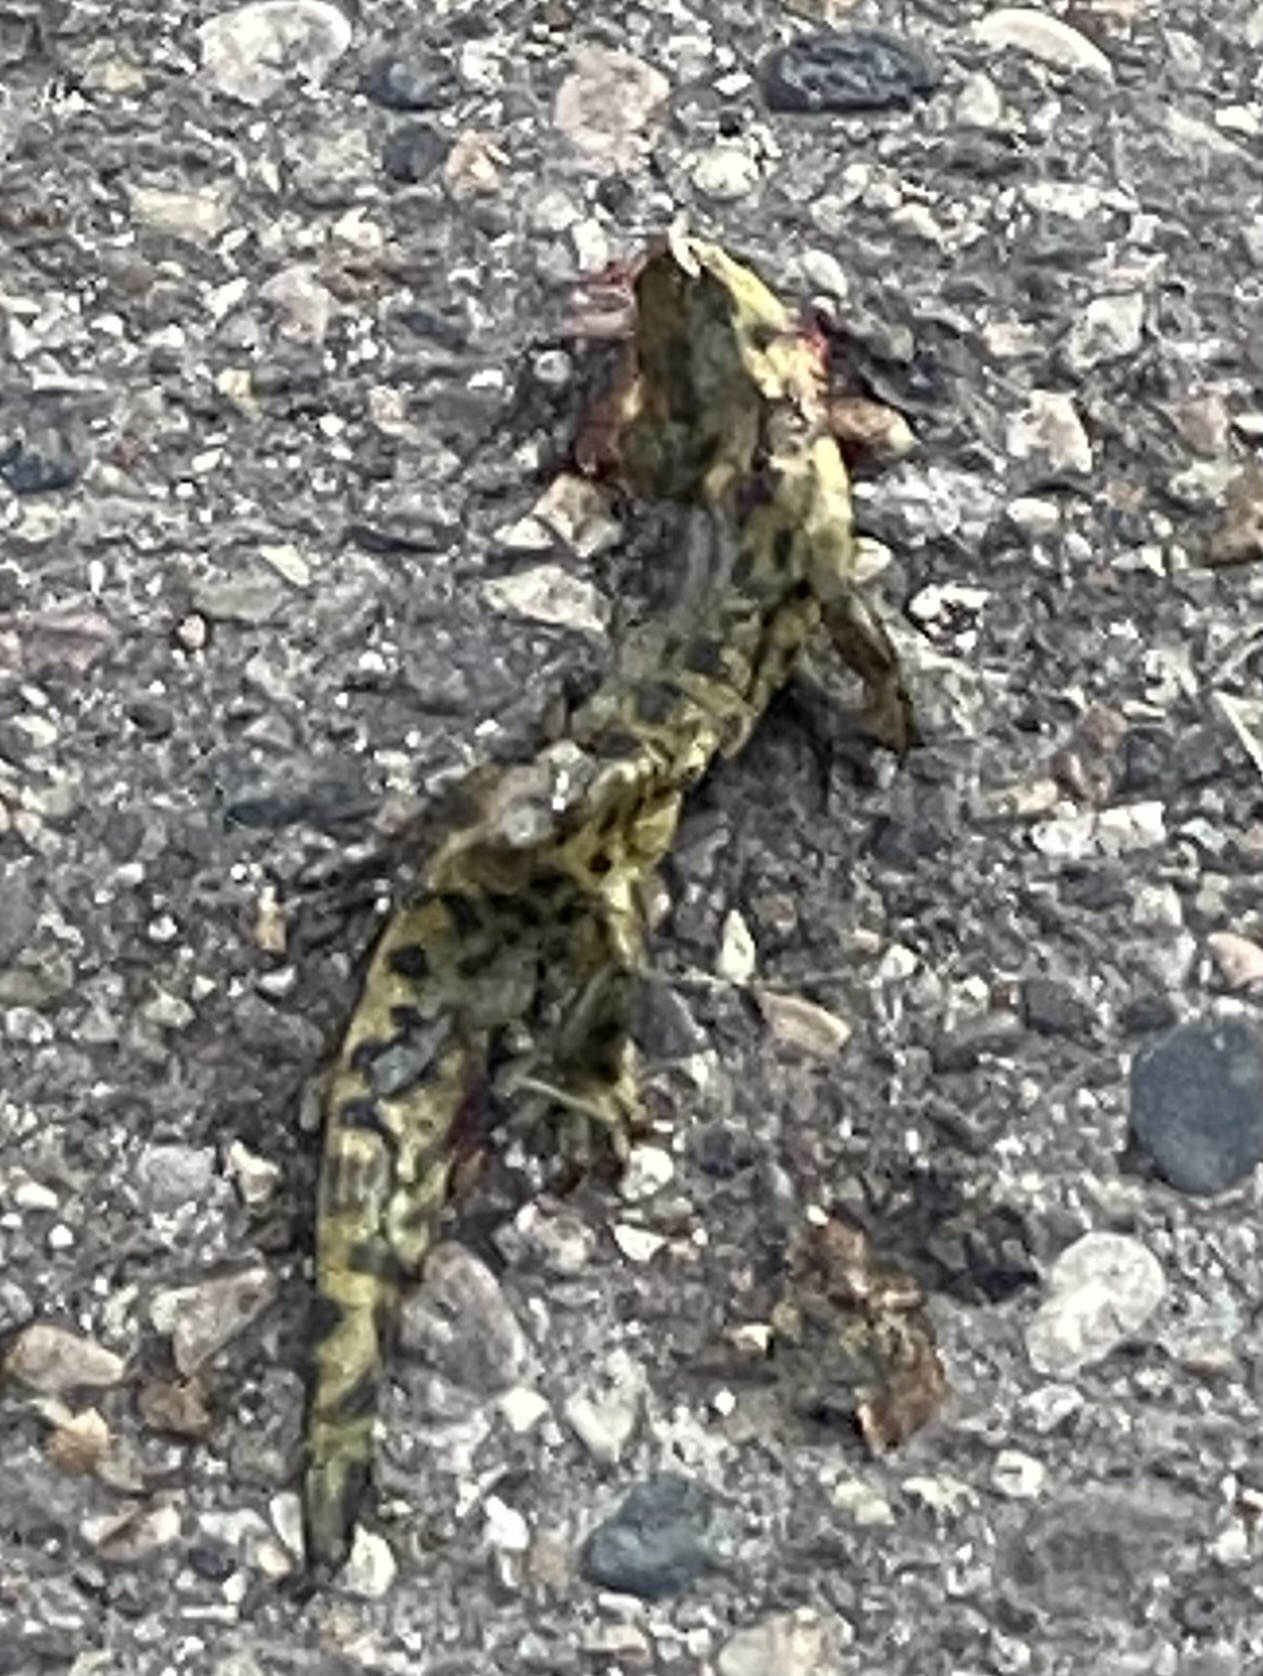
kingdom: Animalia
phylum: Chordata
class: Amphibia
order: Caudata
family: Ambystomatidae
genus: Ambystoma
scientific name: Ambystoma mavortium
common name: Western tiger salamander
